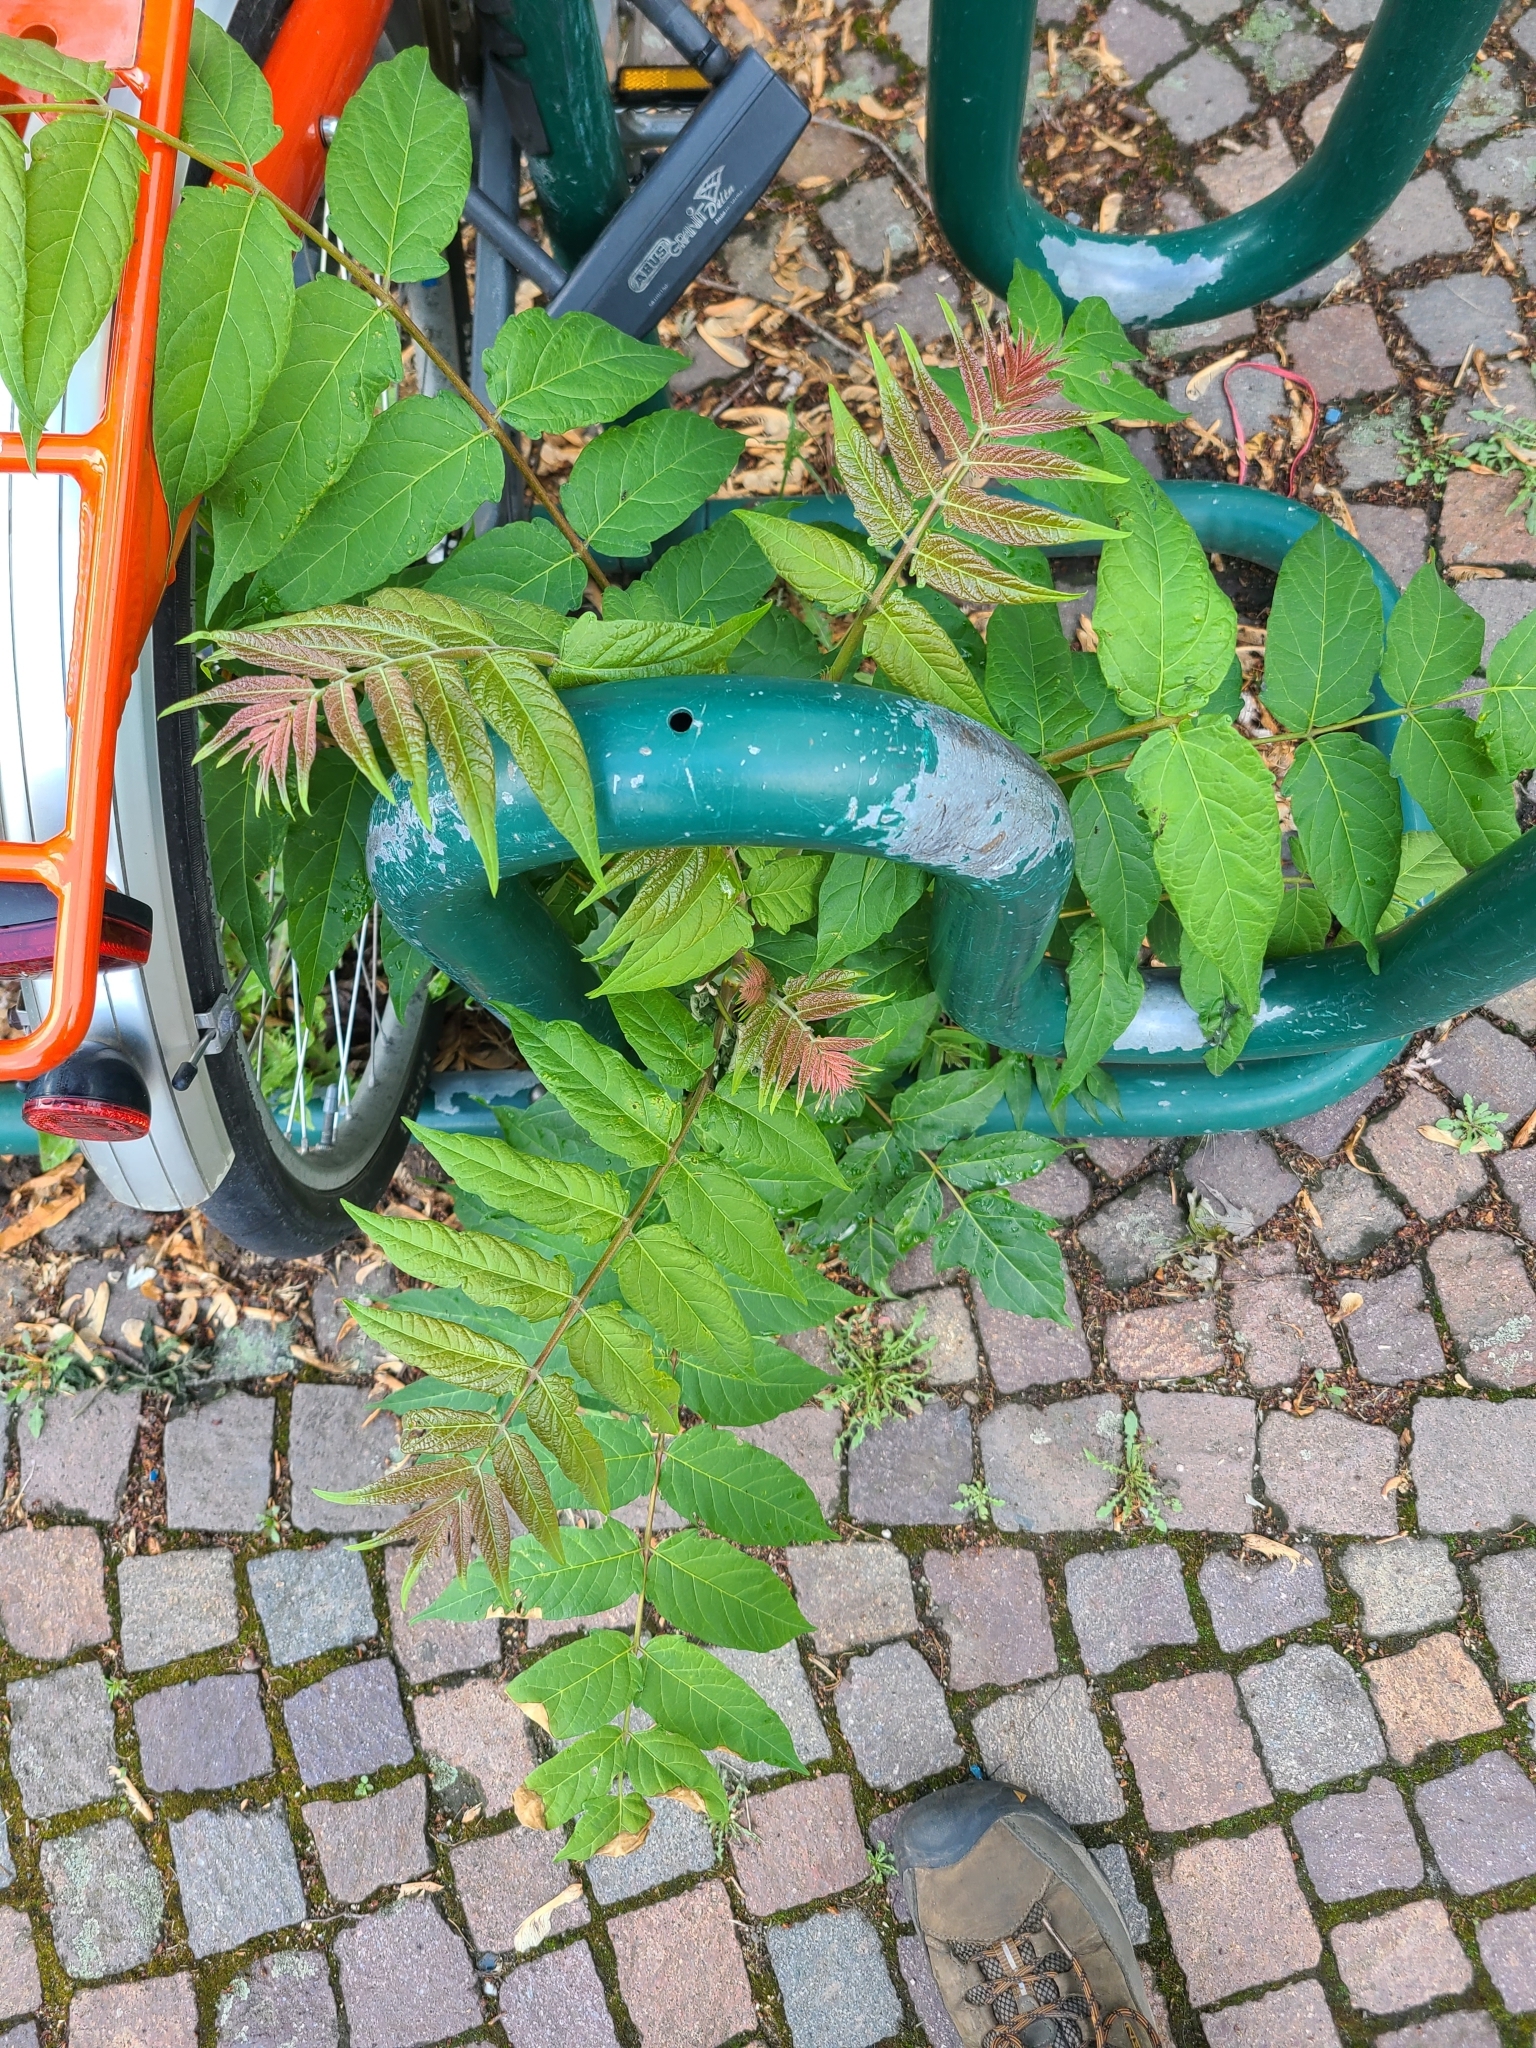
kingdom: Plantae
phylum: Tracheophyta
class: Magnoliopsida
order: Sapindales
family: Simaroubaceae
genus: Ailanthus
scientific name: Ailanthus altissima
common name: Tree-of-heaven
